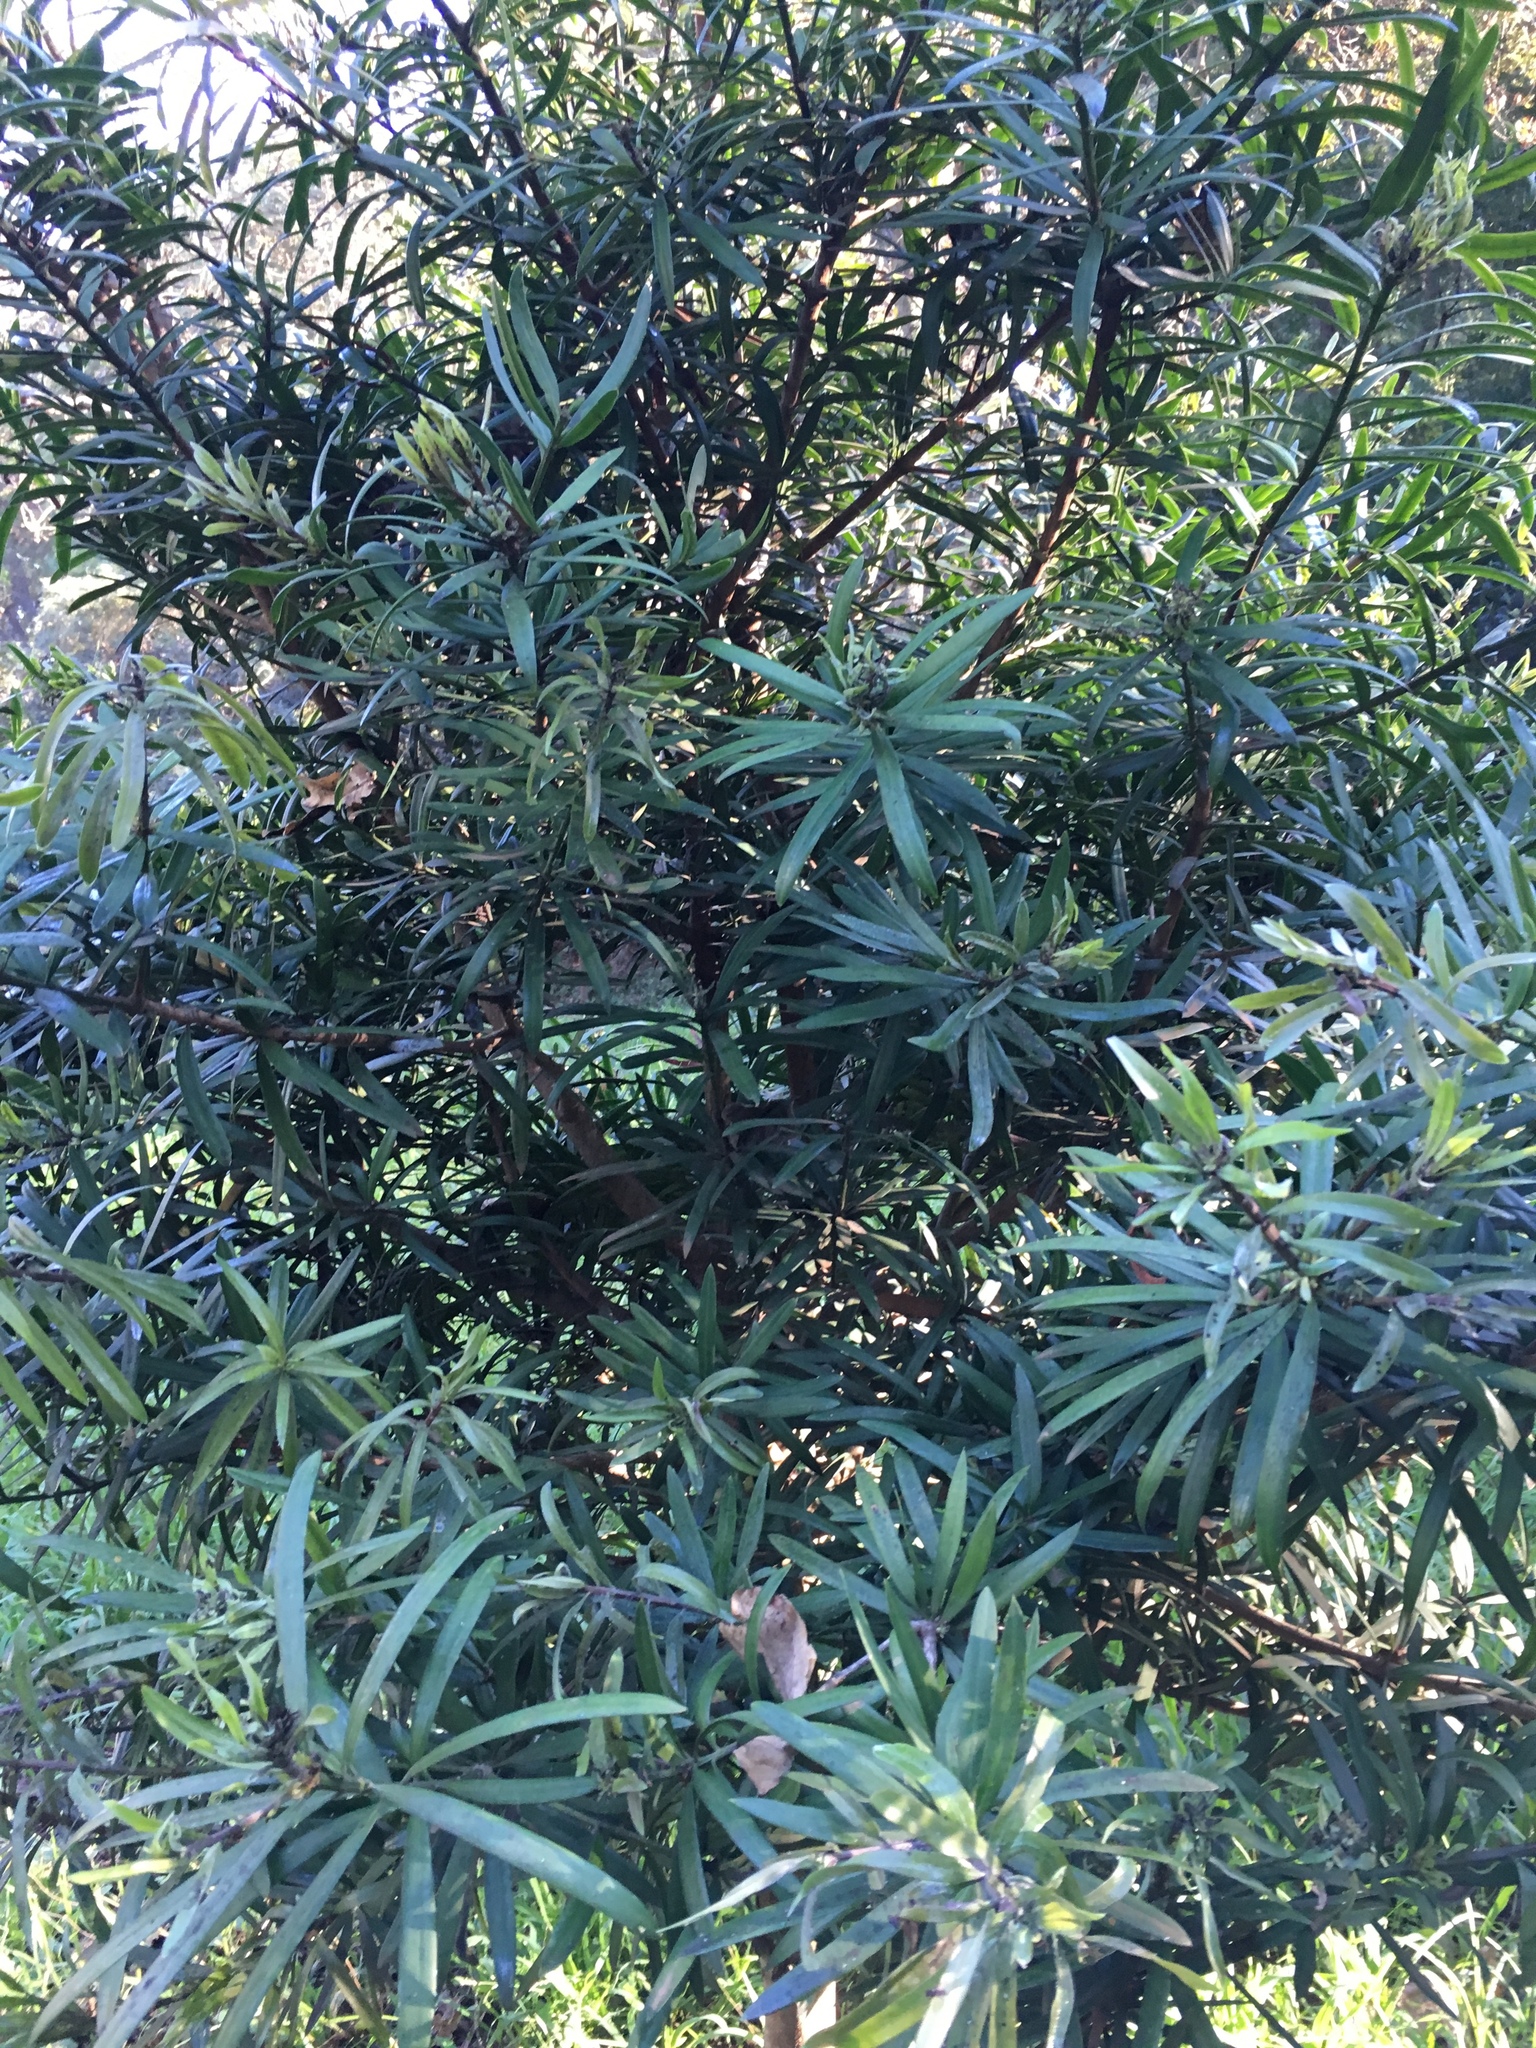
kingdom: Plantae
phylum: Tracheophyta
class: Pinopsida
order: Pinales
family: Podocarpaceae
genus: Podocarpus
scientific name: Podocarpus latifolius
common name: True yellowwood
